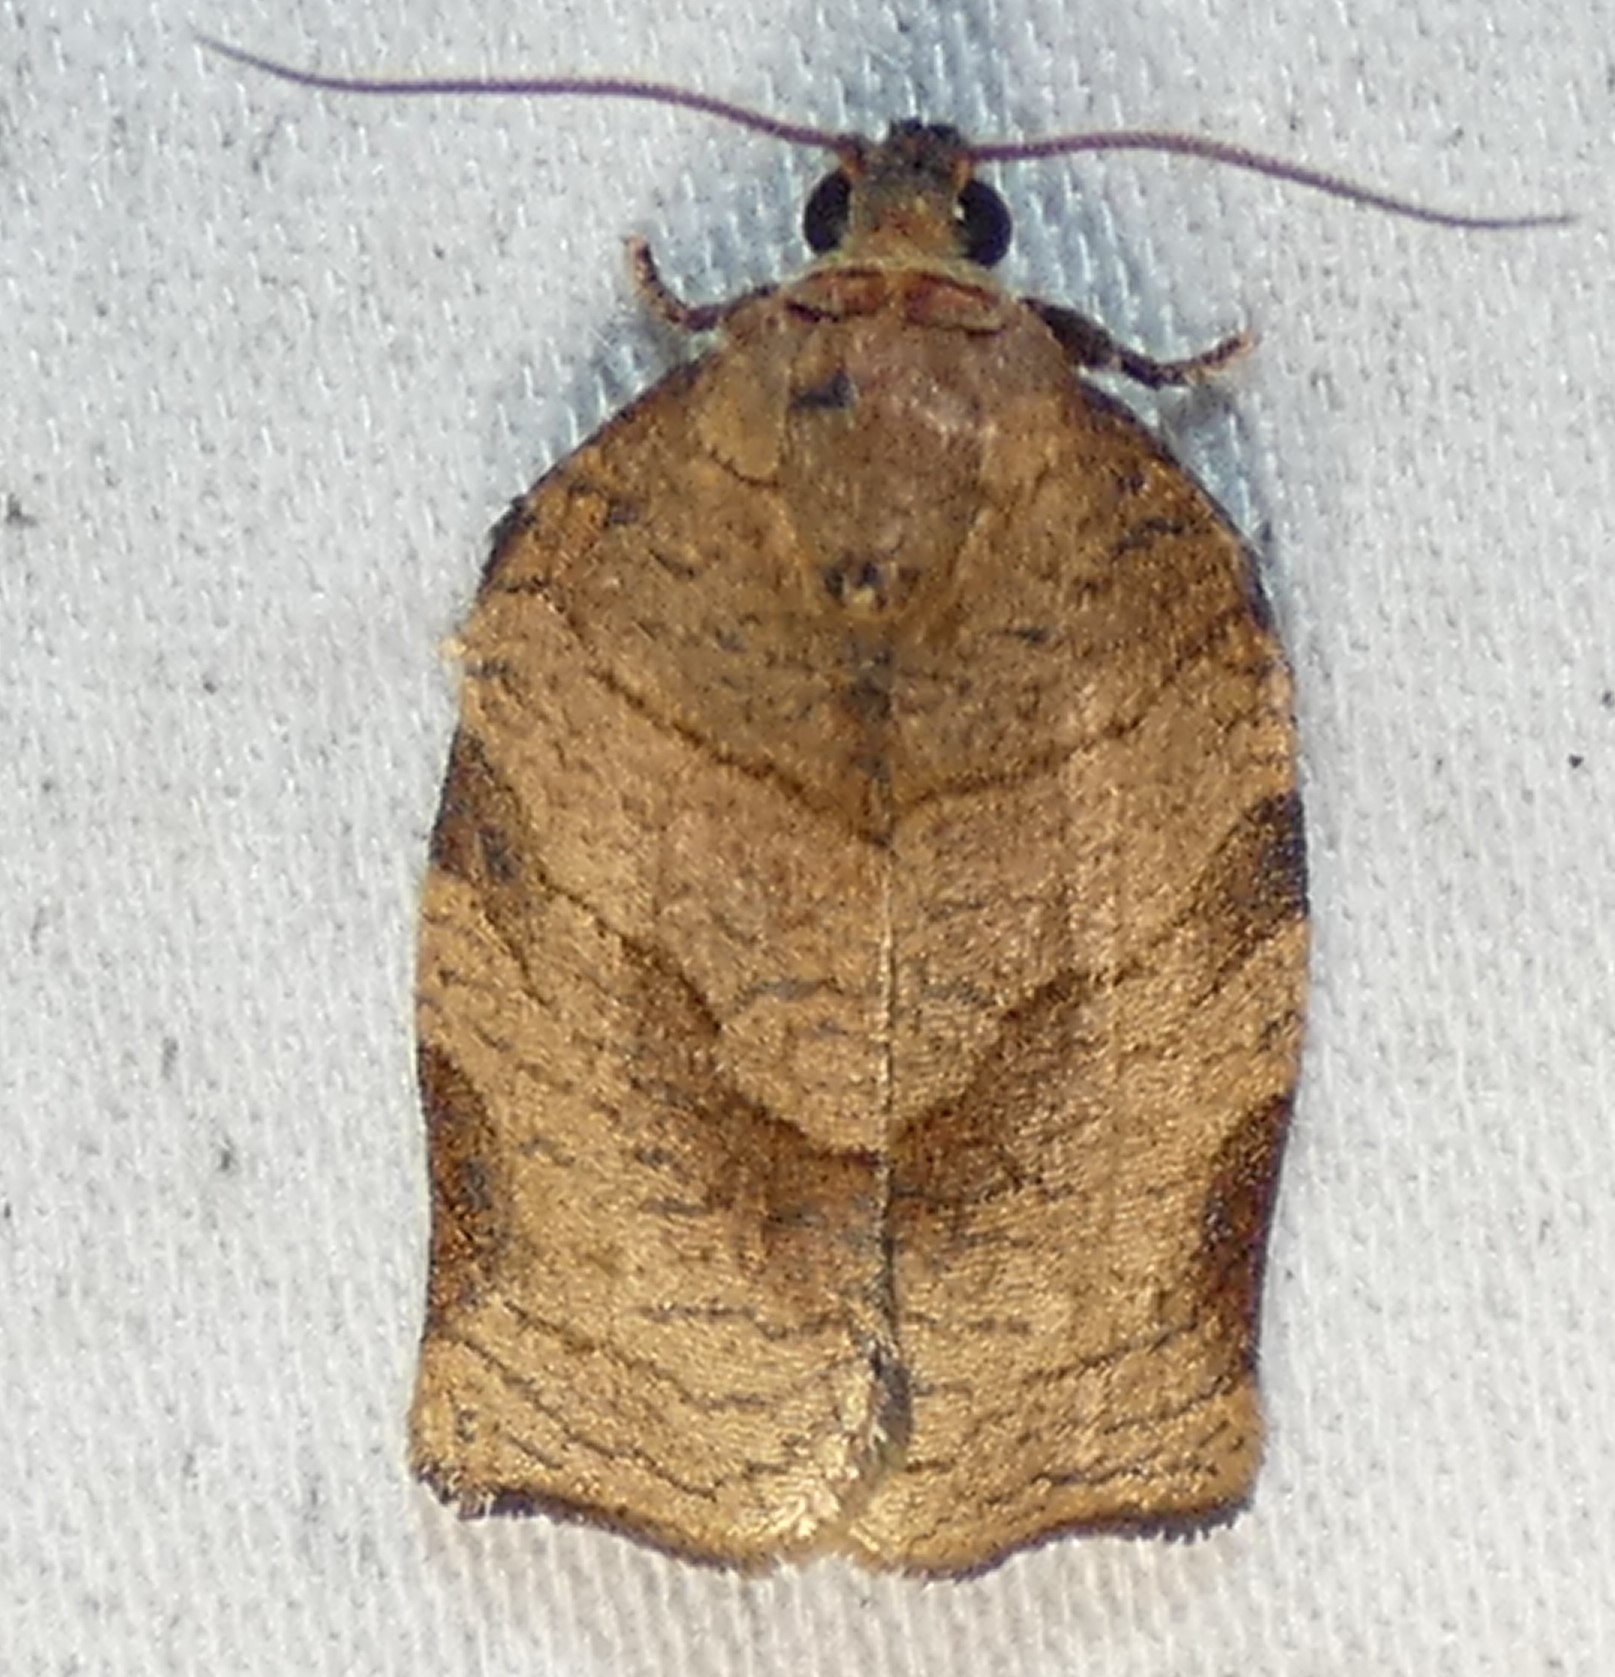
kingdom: Animalia
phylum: Arthropoda
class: Insecta
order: Lepidoptera
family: Tortricidae
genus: Choristoneura
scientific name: Choristoneura rosaceana
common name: Oblique-banded leafroller moth
